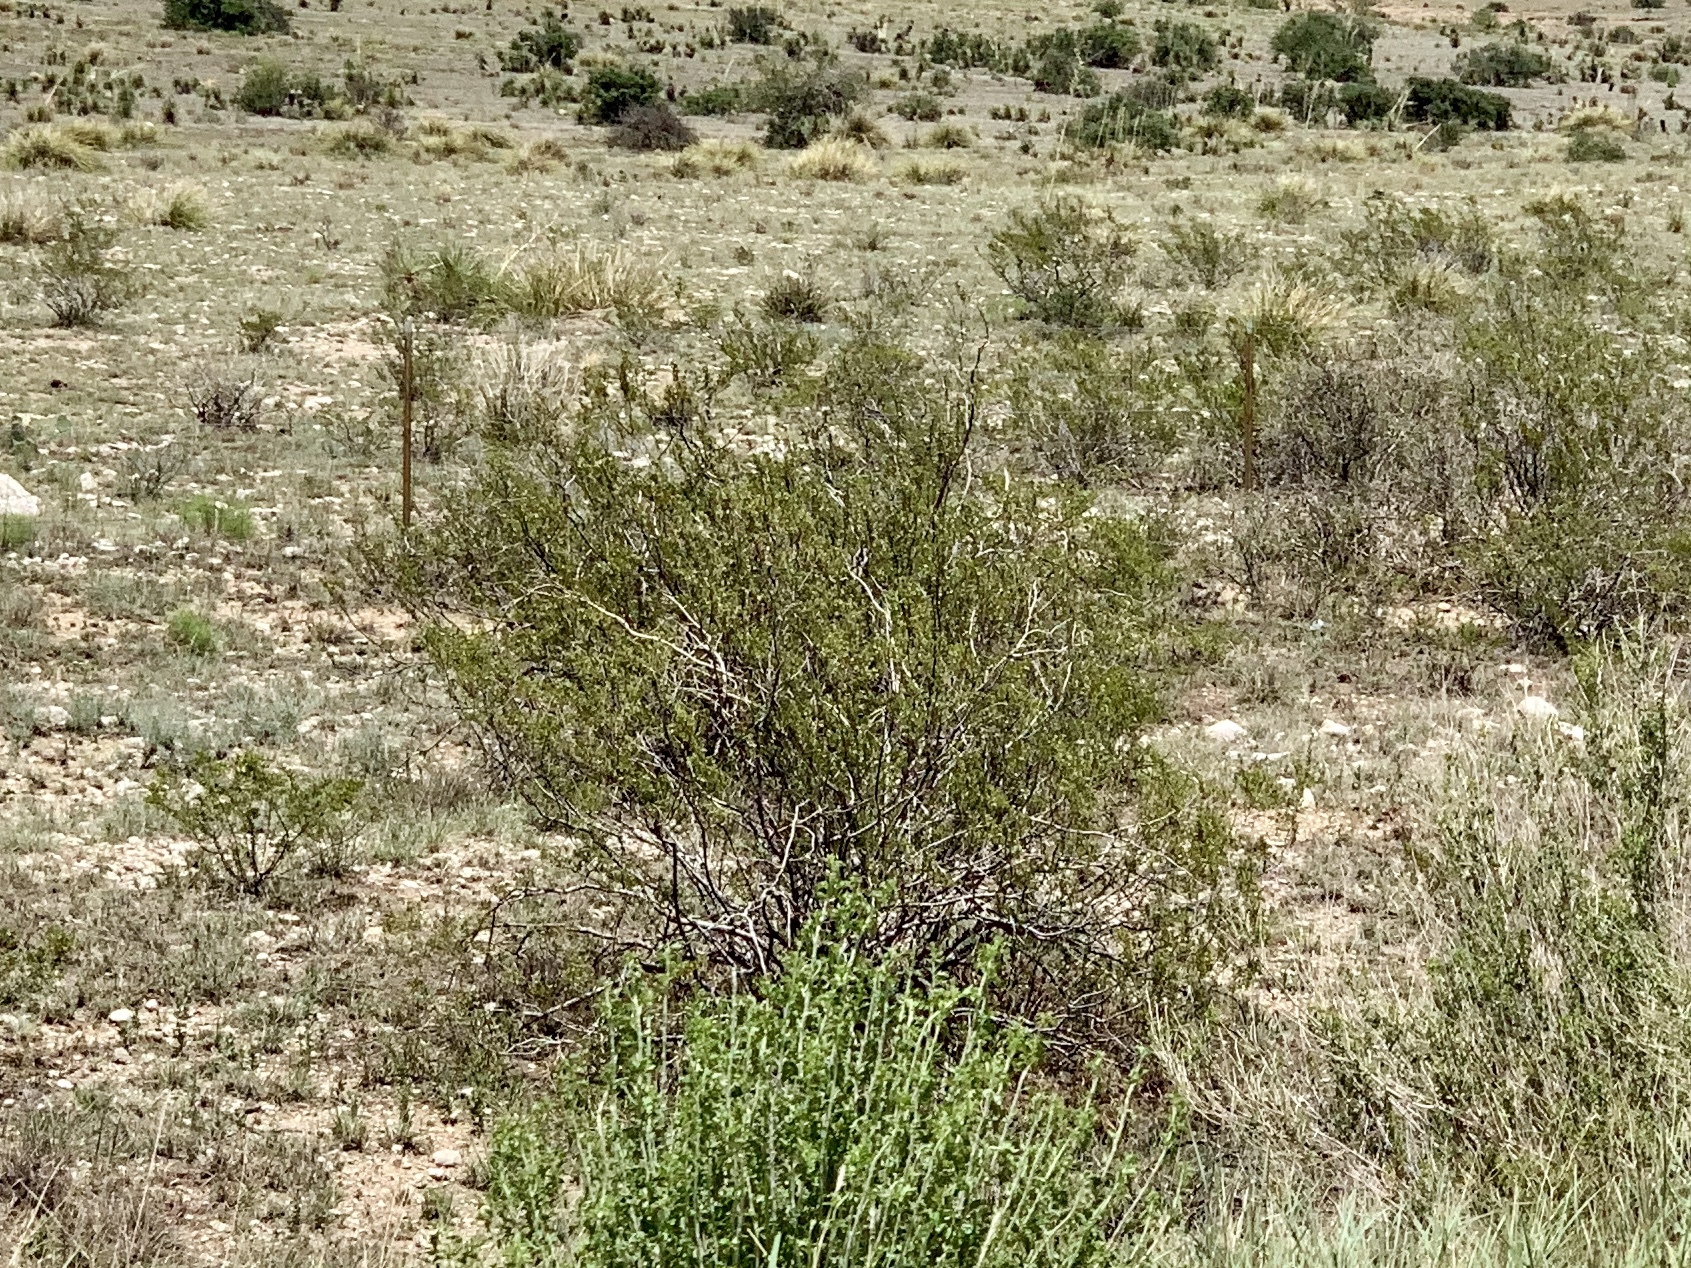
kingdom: Plantae
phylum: Tracheophyta
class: Magnoliopsida
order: Zygophyllales
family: Zygophyllaceae
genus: Larrea
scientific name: Larrea tridentata
